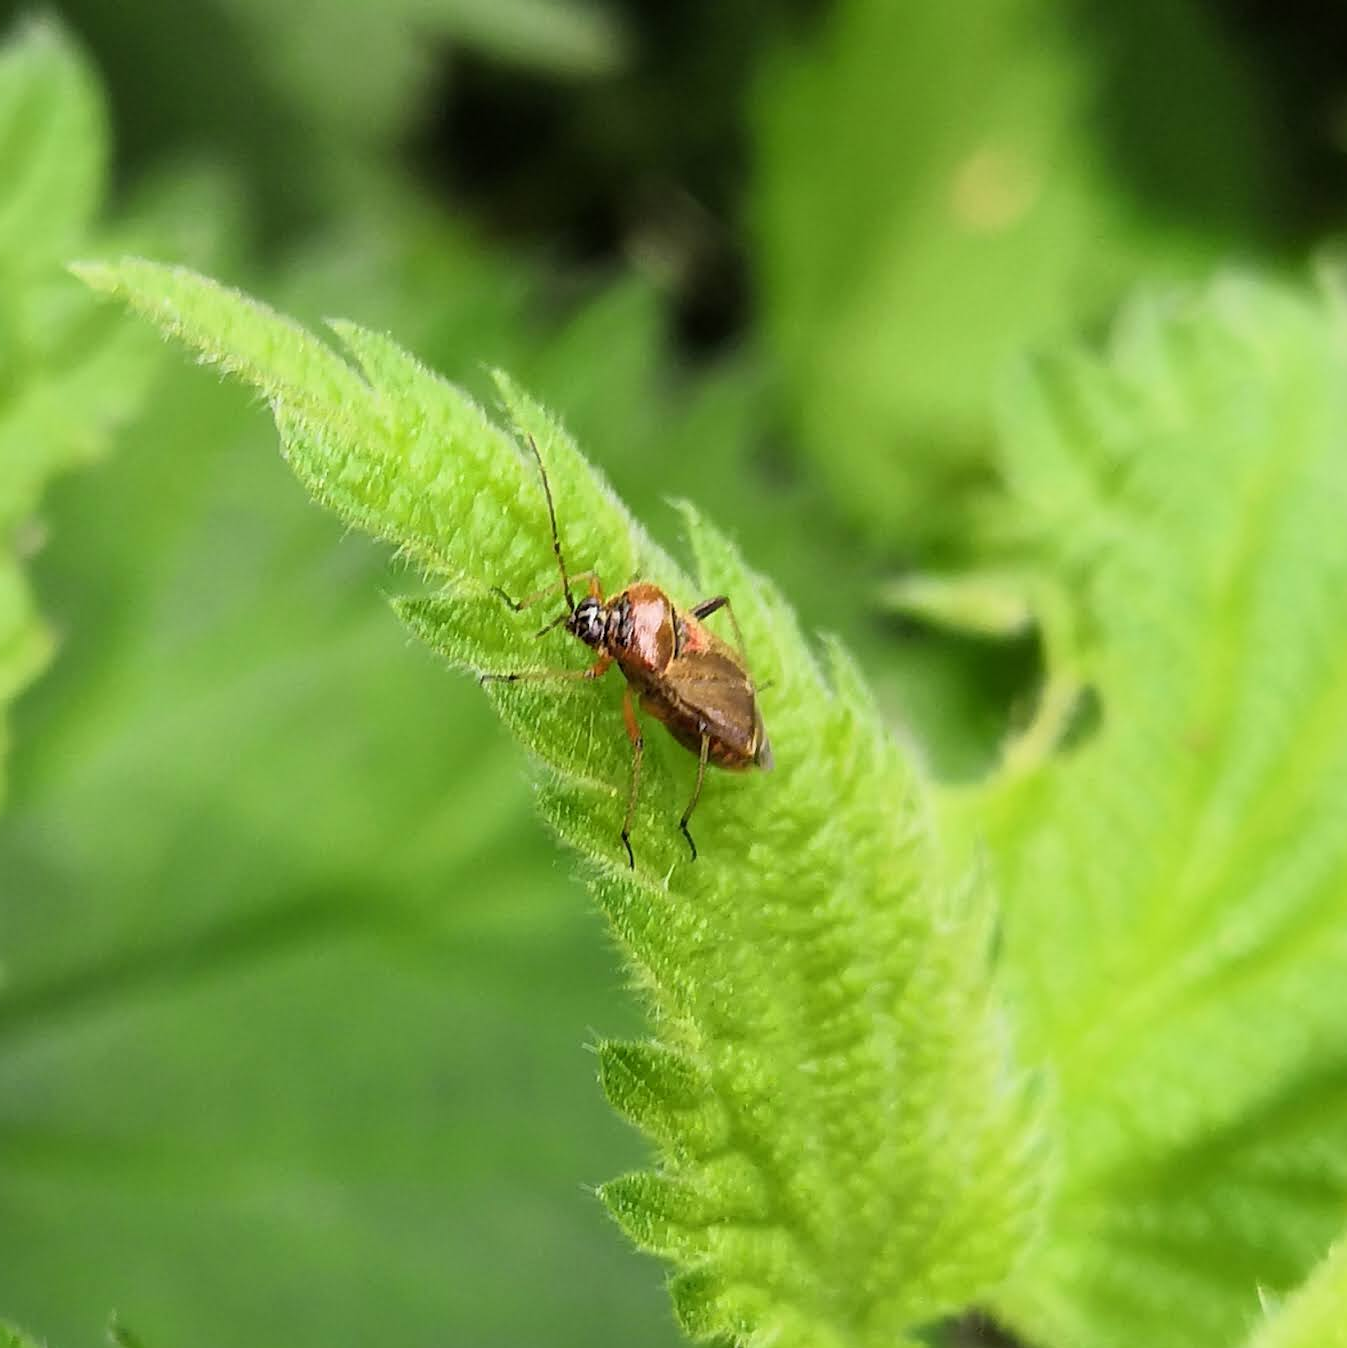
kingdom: Animalia
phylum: Arthropoda
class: Insecta
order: Hemiptera
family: Miridae
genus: Harpocera
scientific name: Harpocera thoracica
